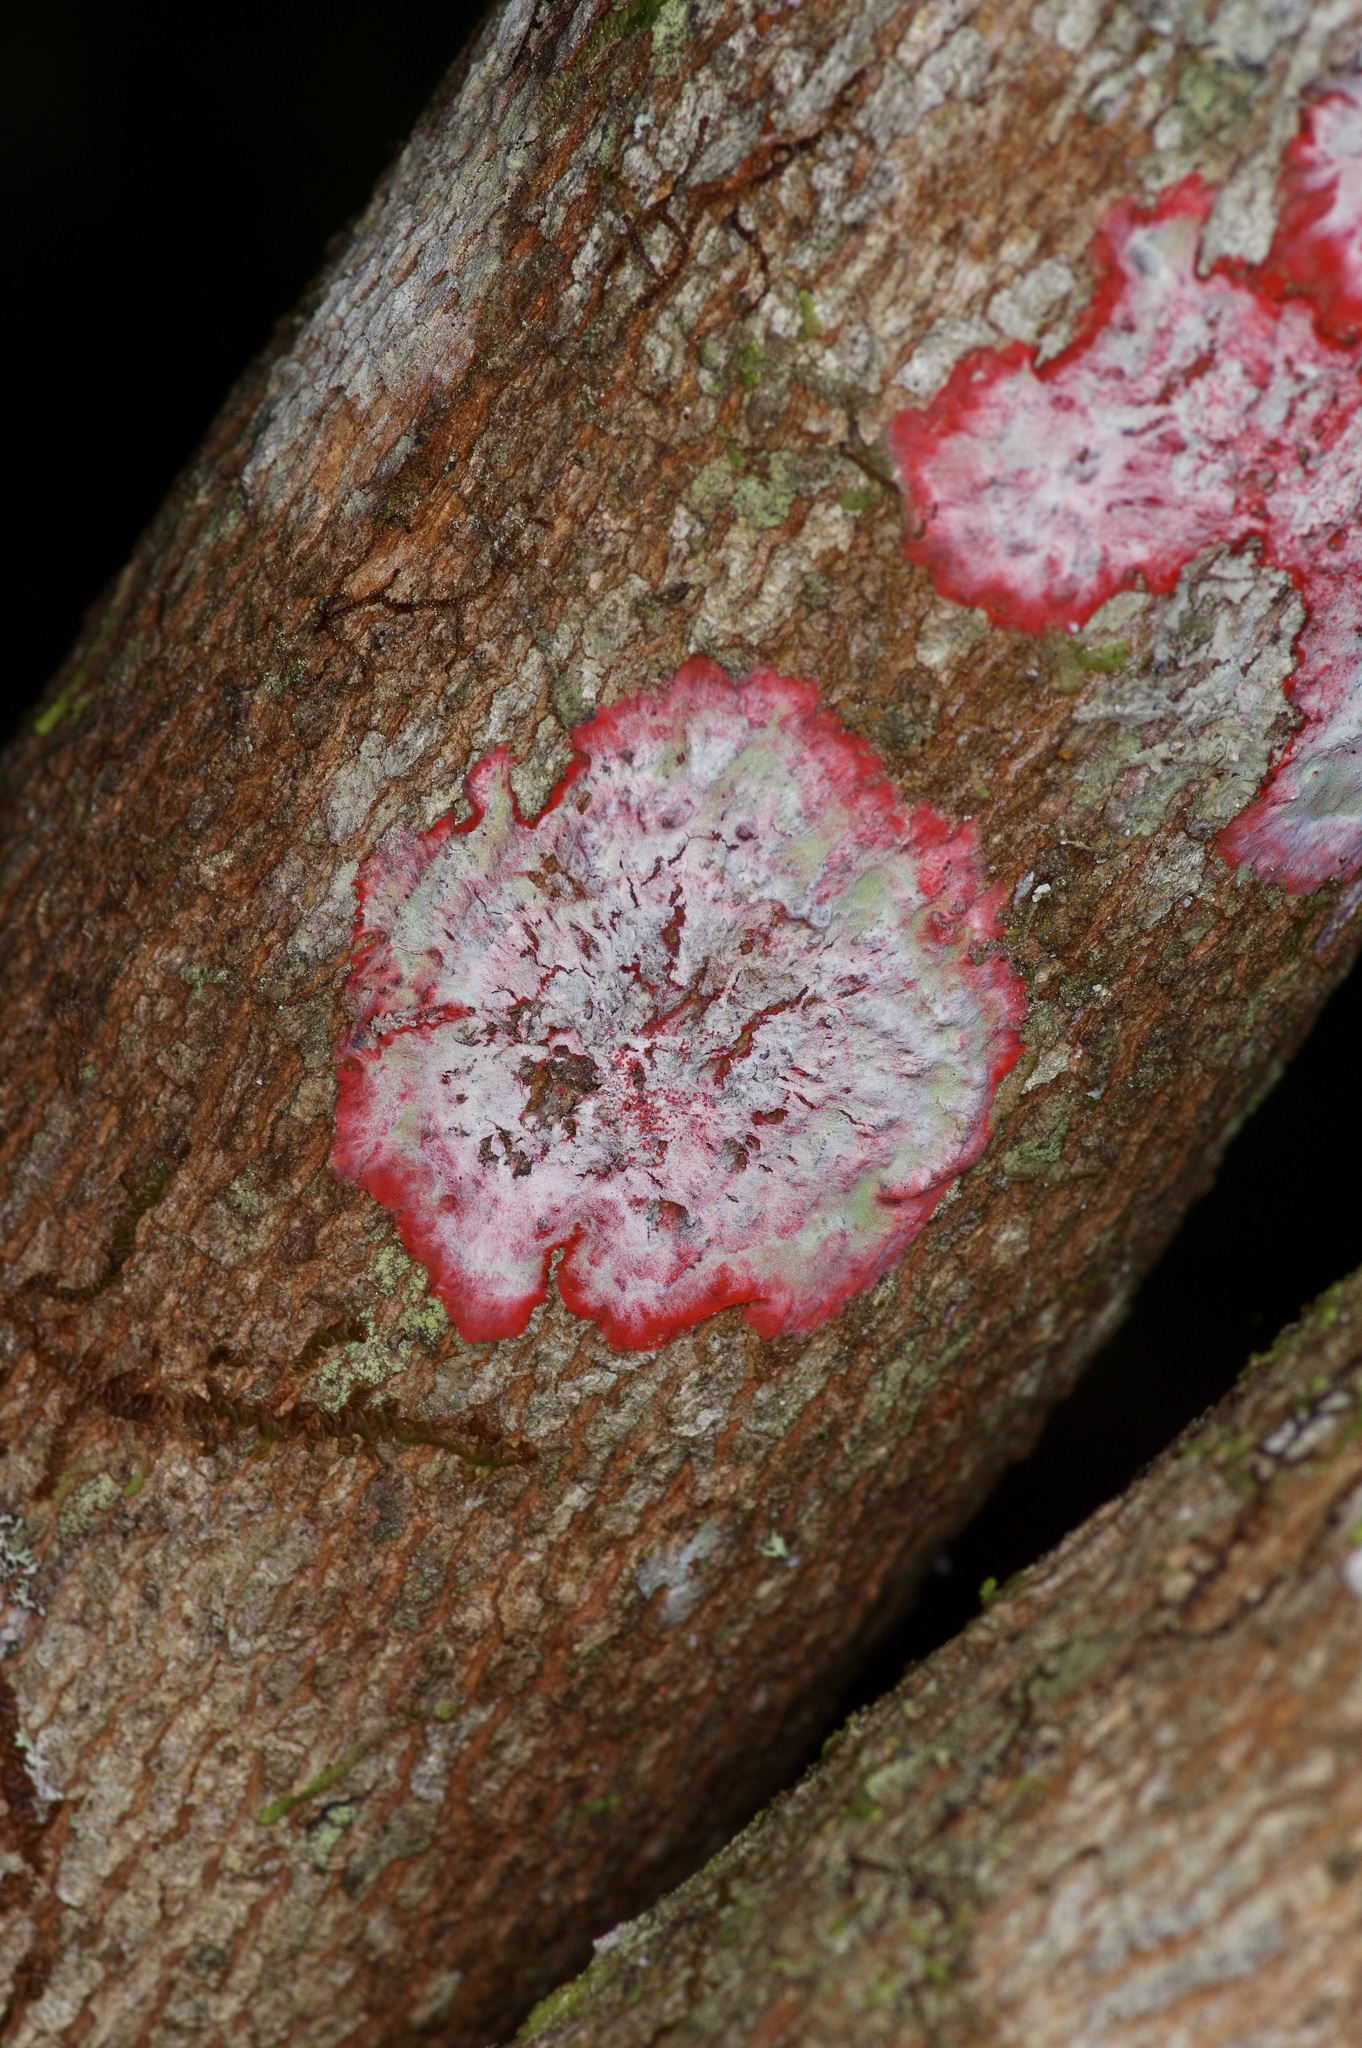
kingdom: Fungi
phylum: Ascomycota
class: Arthoniomycetes
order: Arthoniales
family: Arthoniaceae
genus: Herpothallon
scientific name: Herpothallon rubrocinctum
